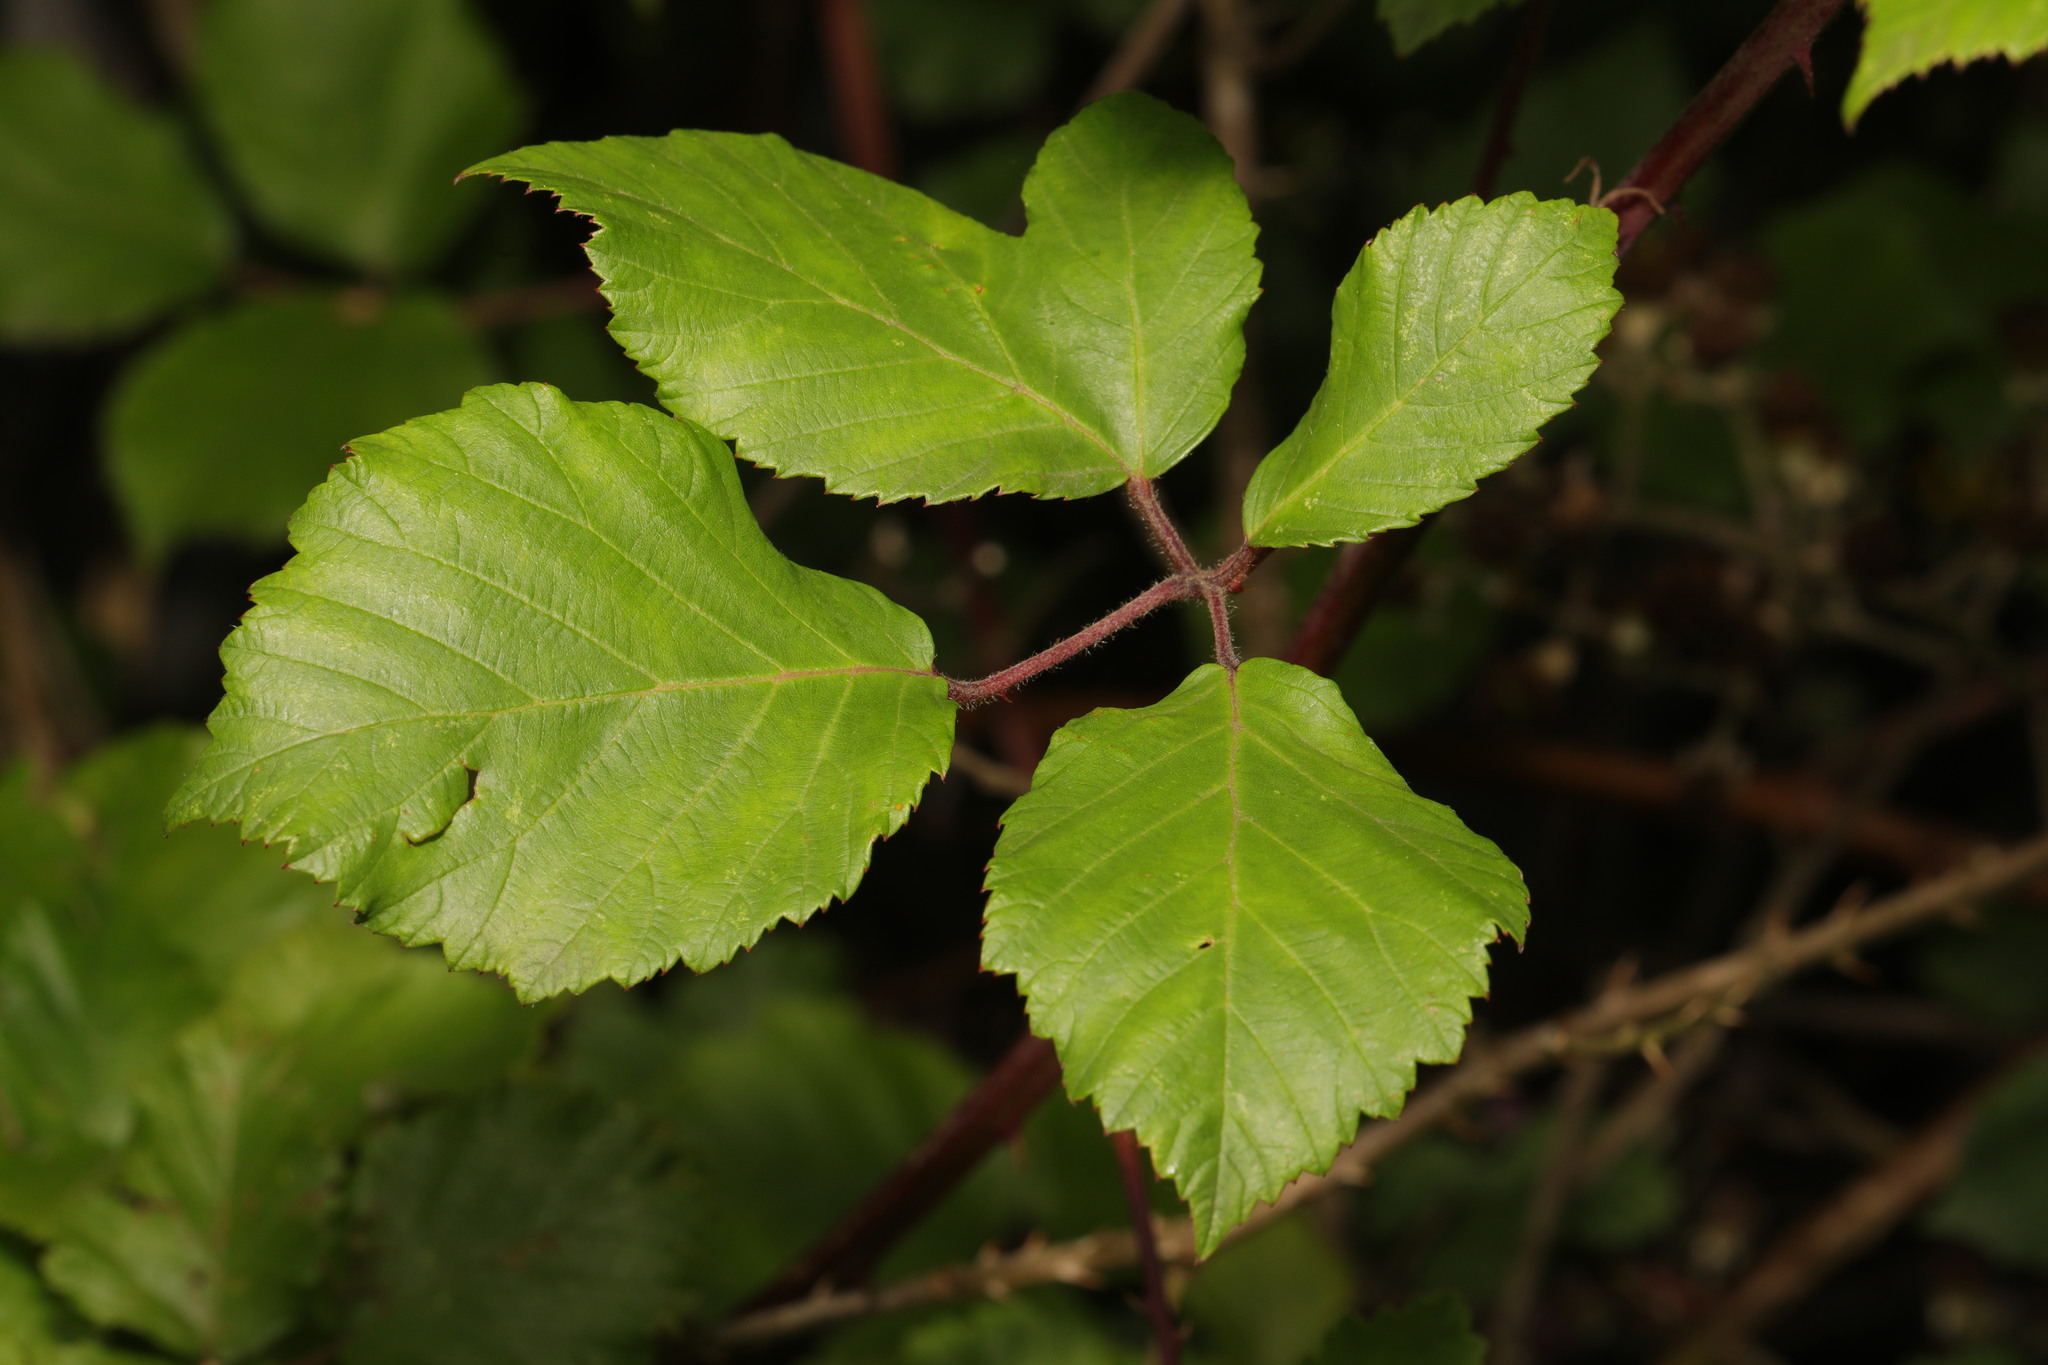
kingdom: Plantae
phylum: Tracheophyta
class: Magnoliopsida
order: Rosales
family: Rosaceae
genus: Rubus
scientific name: Rubus fruticosus
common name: Blackberry, bramble
